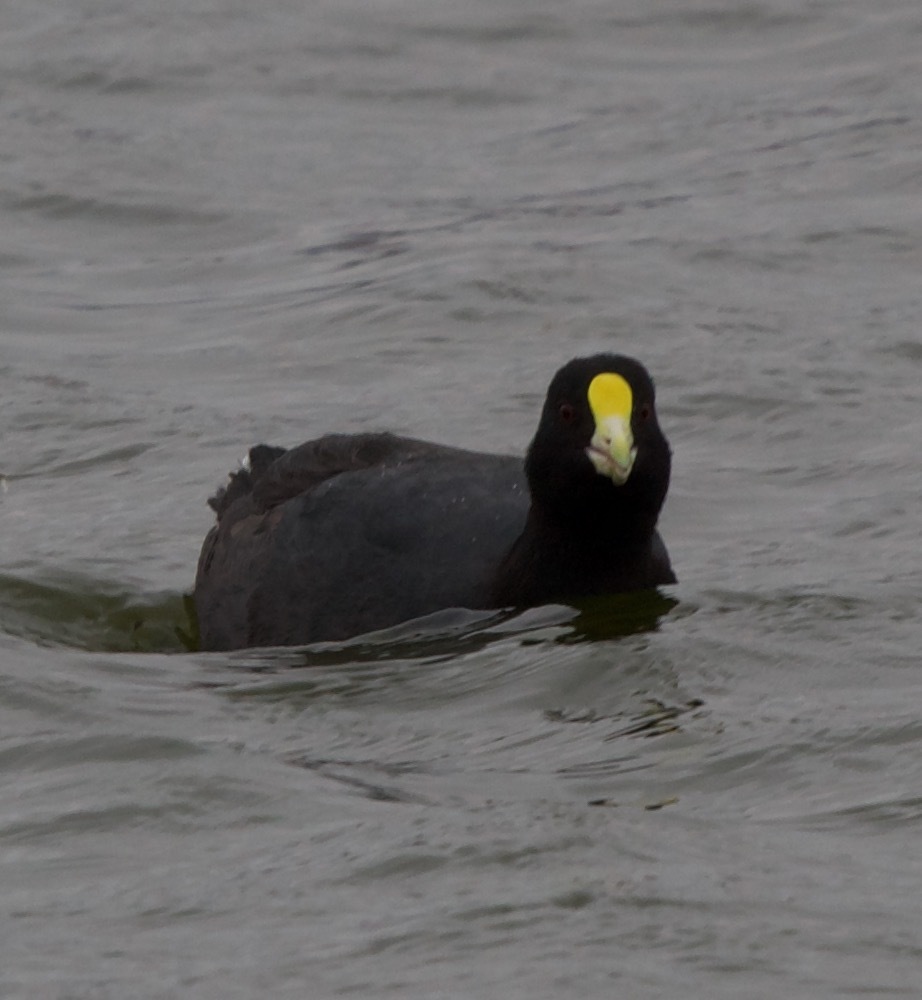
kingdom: Animalia
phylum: Chordata
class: Aves
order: Gruiformes
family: Rallidae
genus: Fulica
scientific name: Fulica leucoptera
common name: White-winged coot
